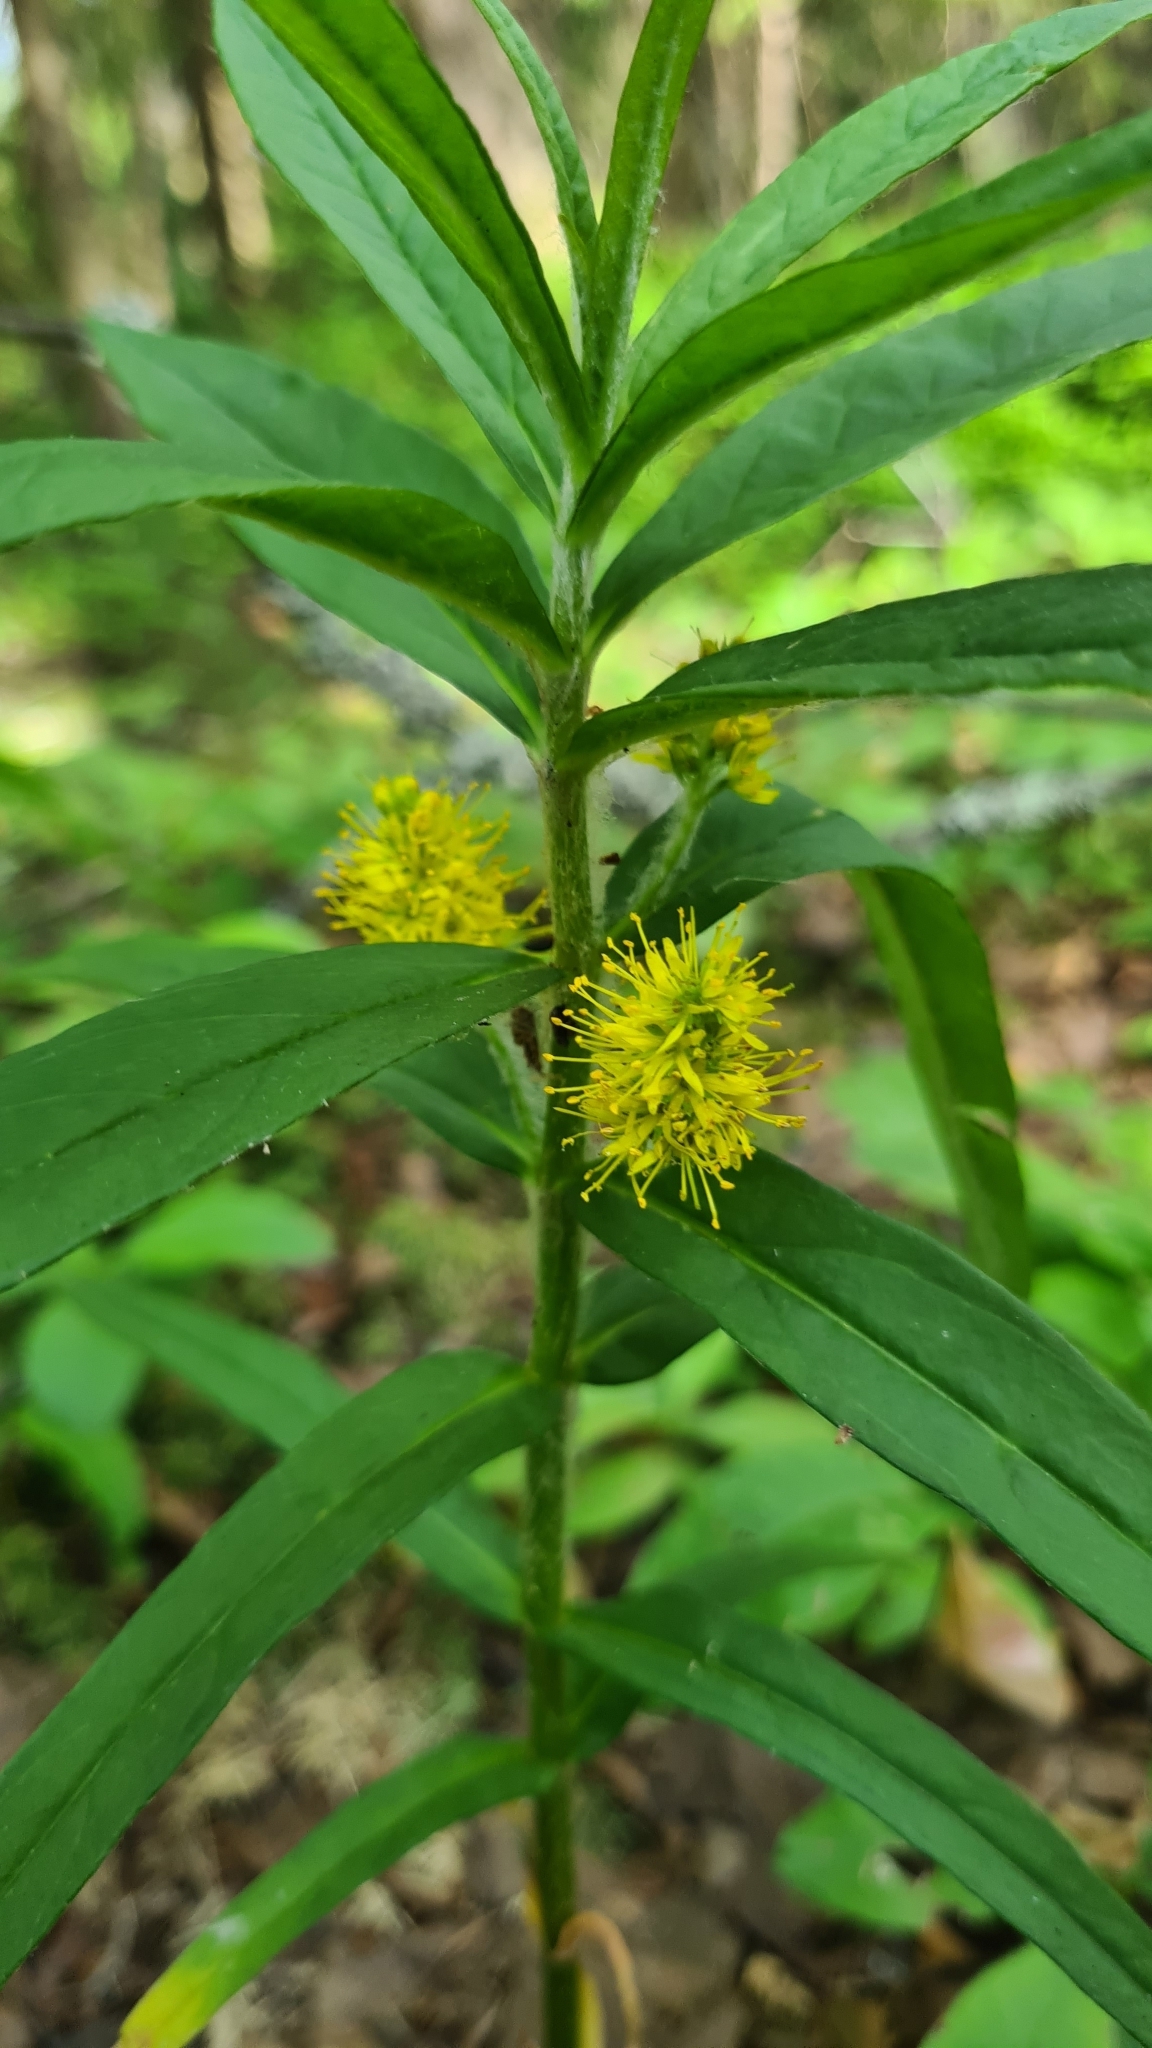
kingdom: Plantae
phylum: Tracheophyta
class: Magnoliopsida
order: Ericales
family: Primulaceae
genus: Lysimachia
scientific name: Lysimachia thyrsiflora
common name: Tufted loosestrife
